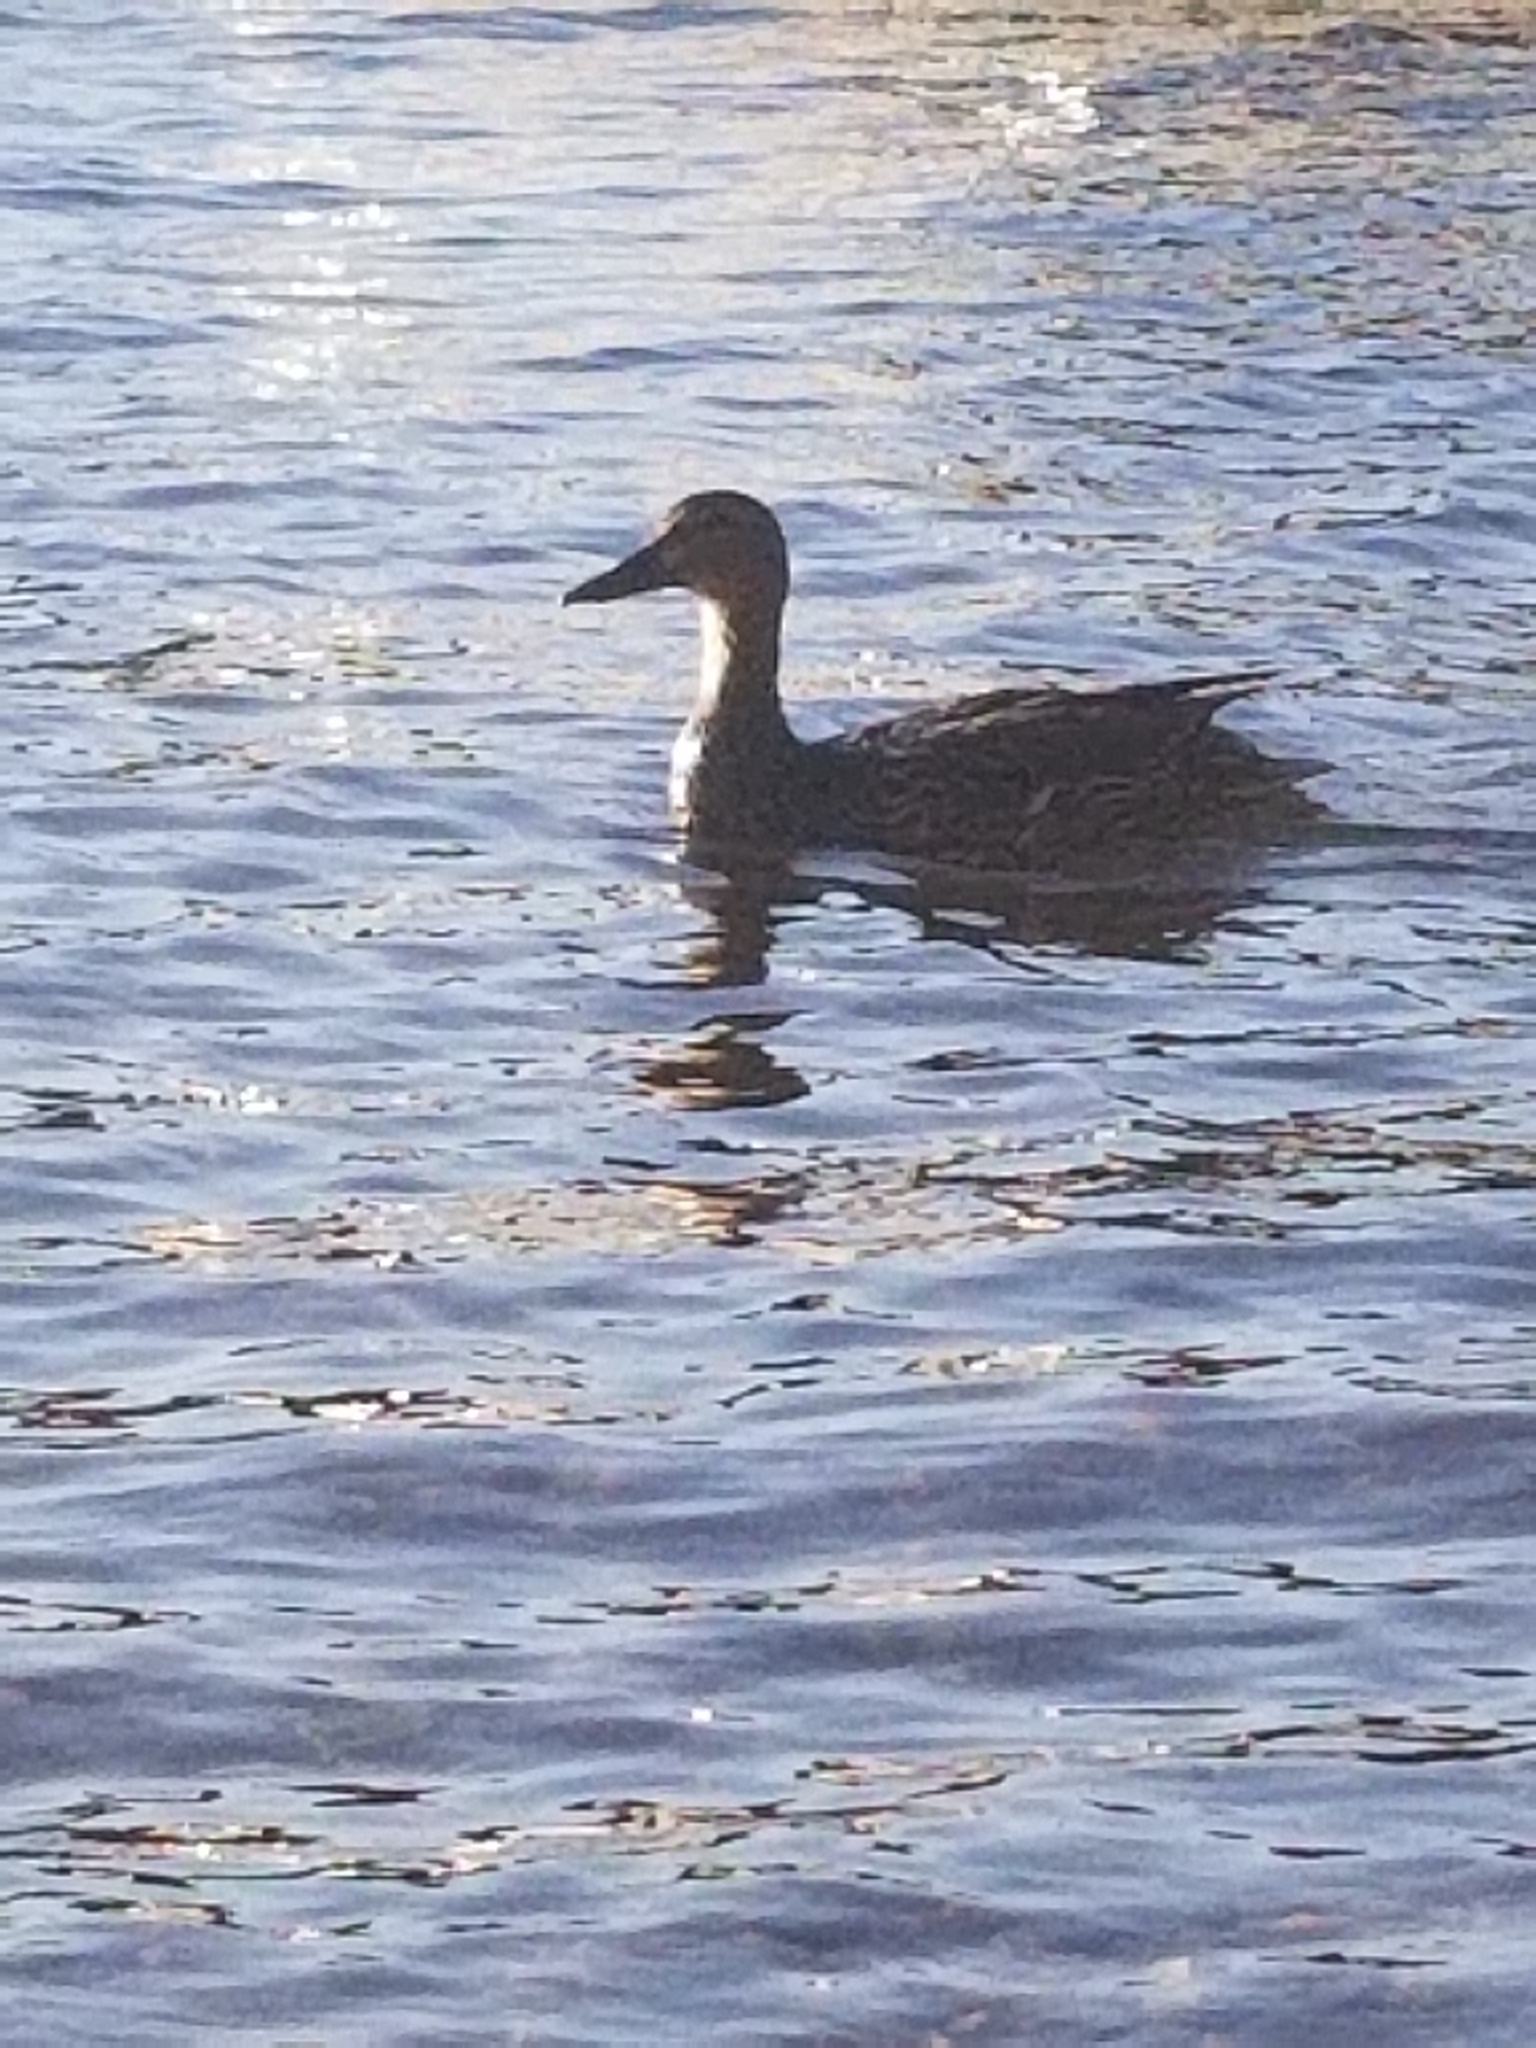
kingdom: Animalia
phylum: Chordata
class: Aves
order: Anseriformes
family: Anatidae
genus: Anas
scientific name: Anas platyrhynchos
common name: Mallard
